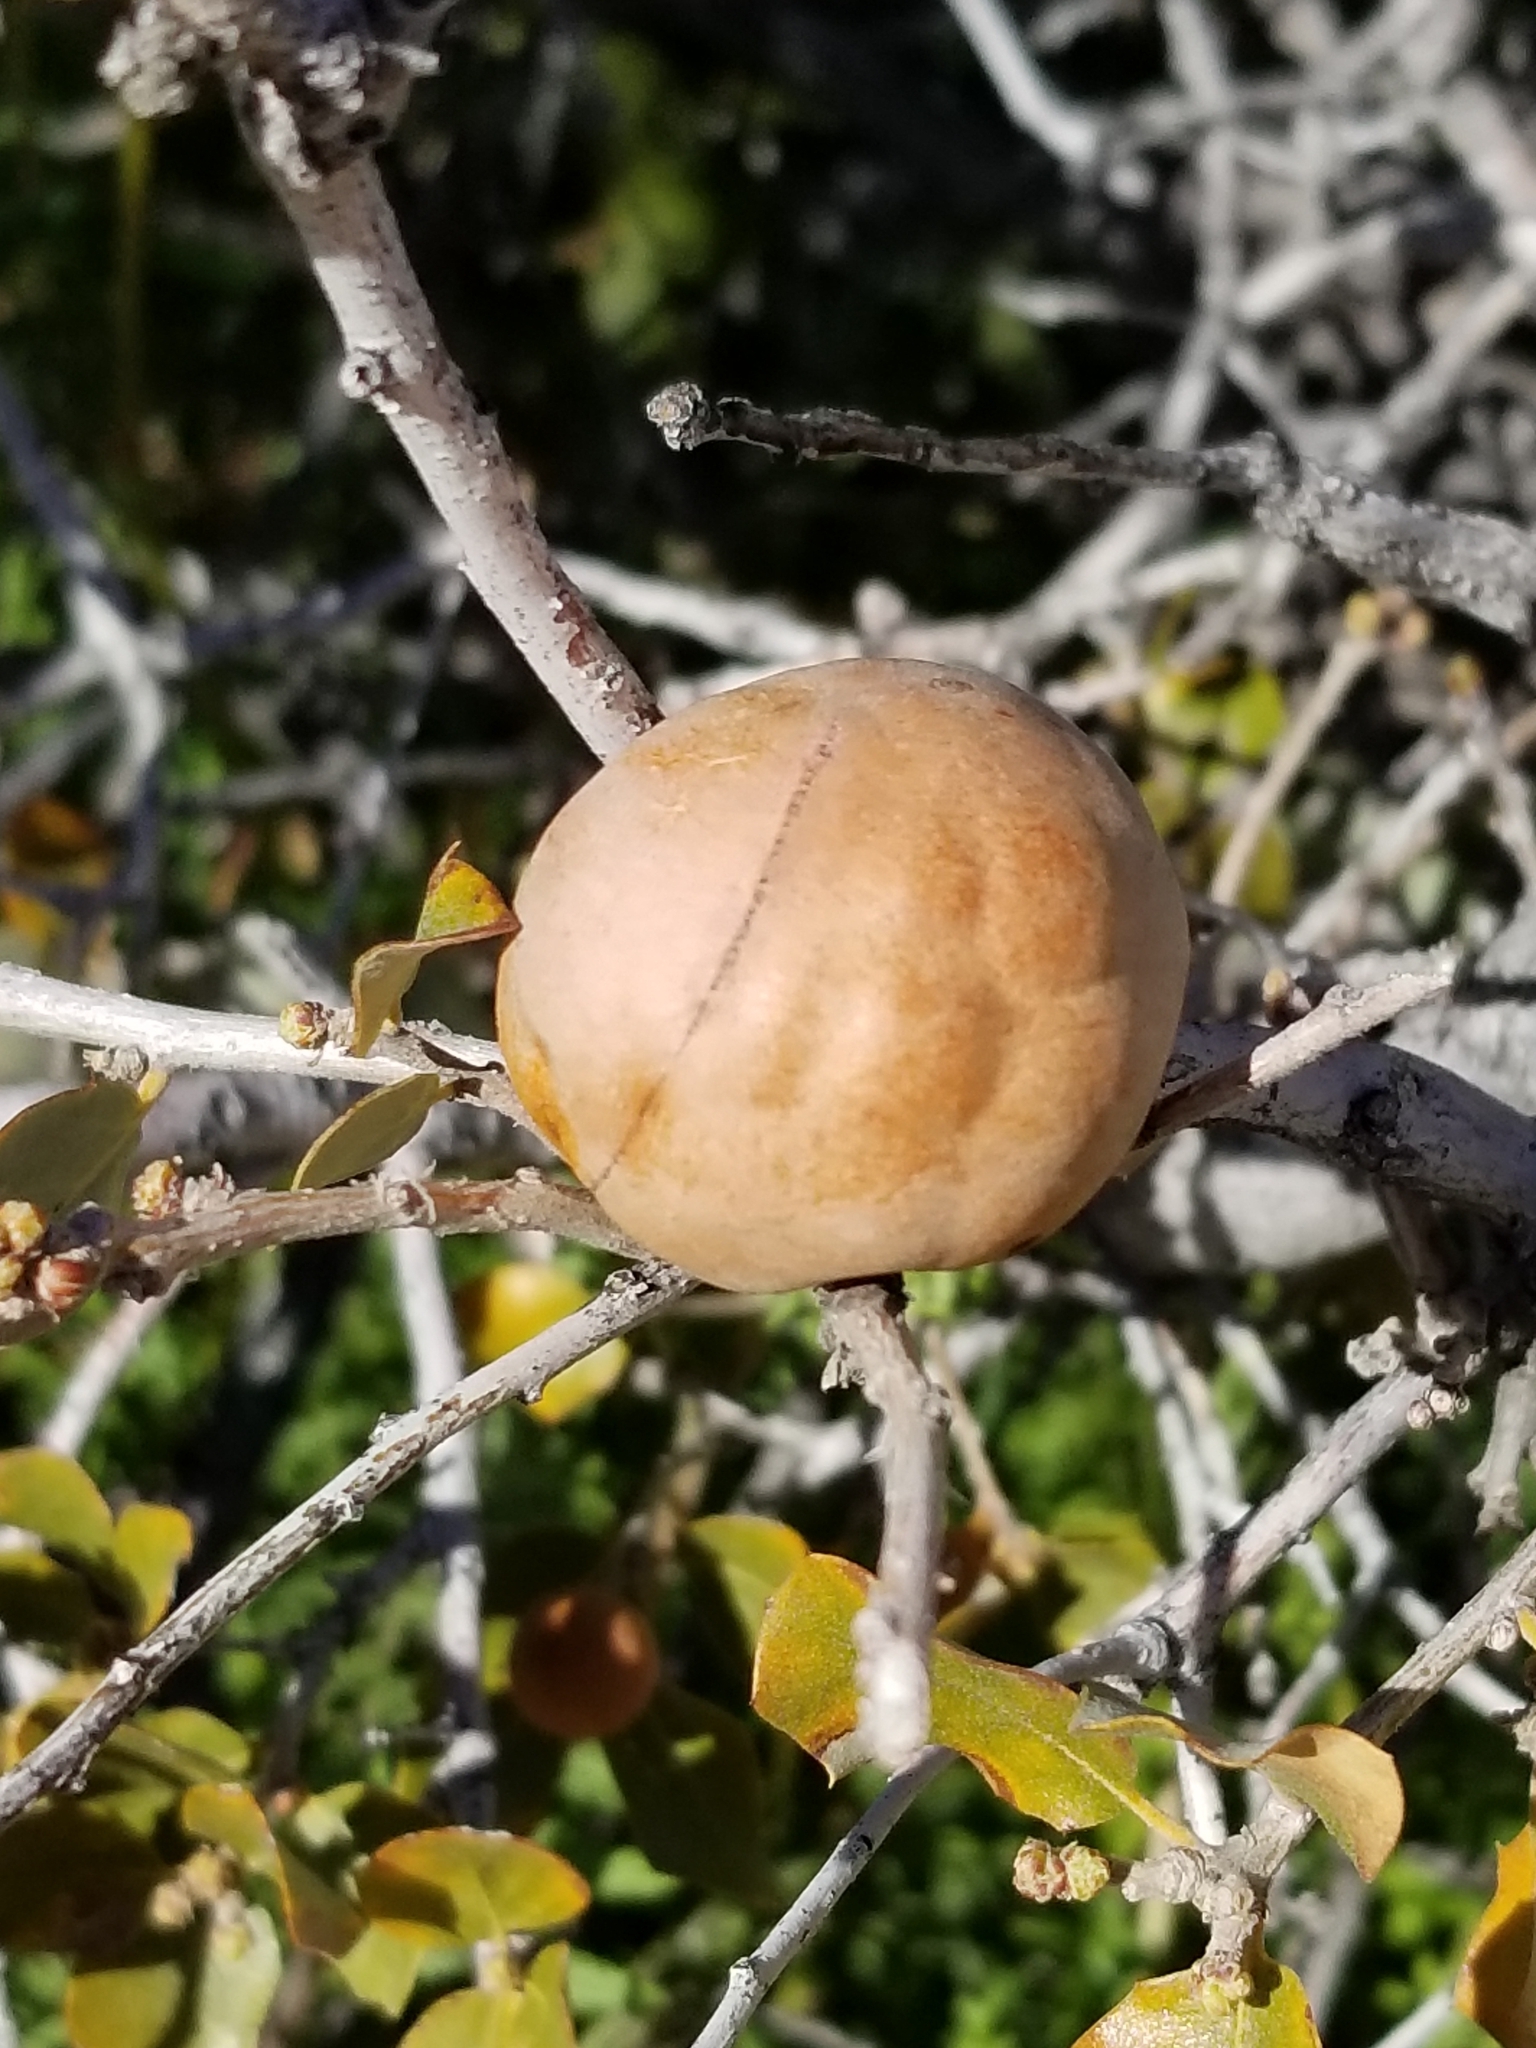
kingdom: Animalia
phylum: Arthropoda
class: Insecta
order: Hymenoptera
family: Cynipidae
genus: Andricus
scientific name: Andricus quercuscalifornicus
